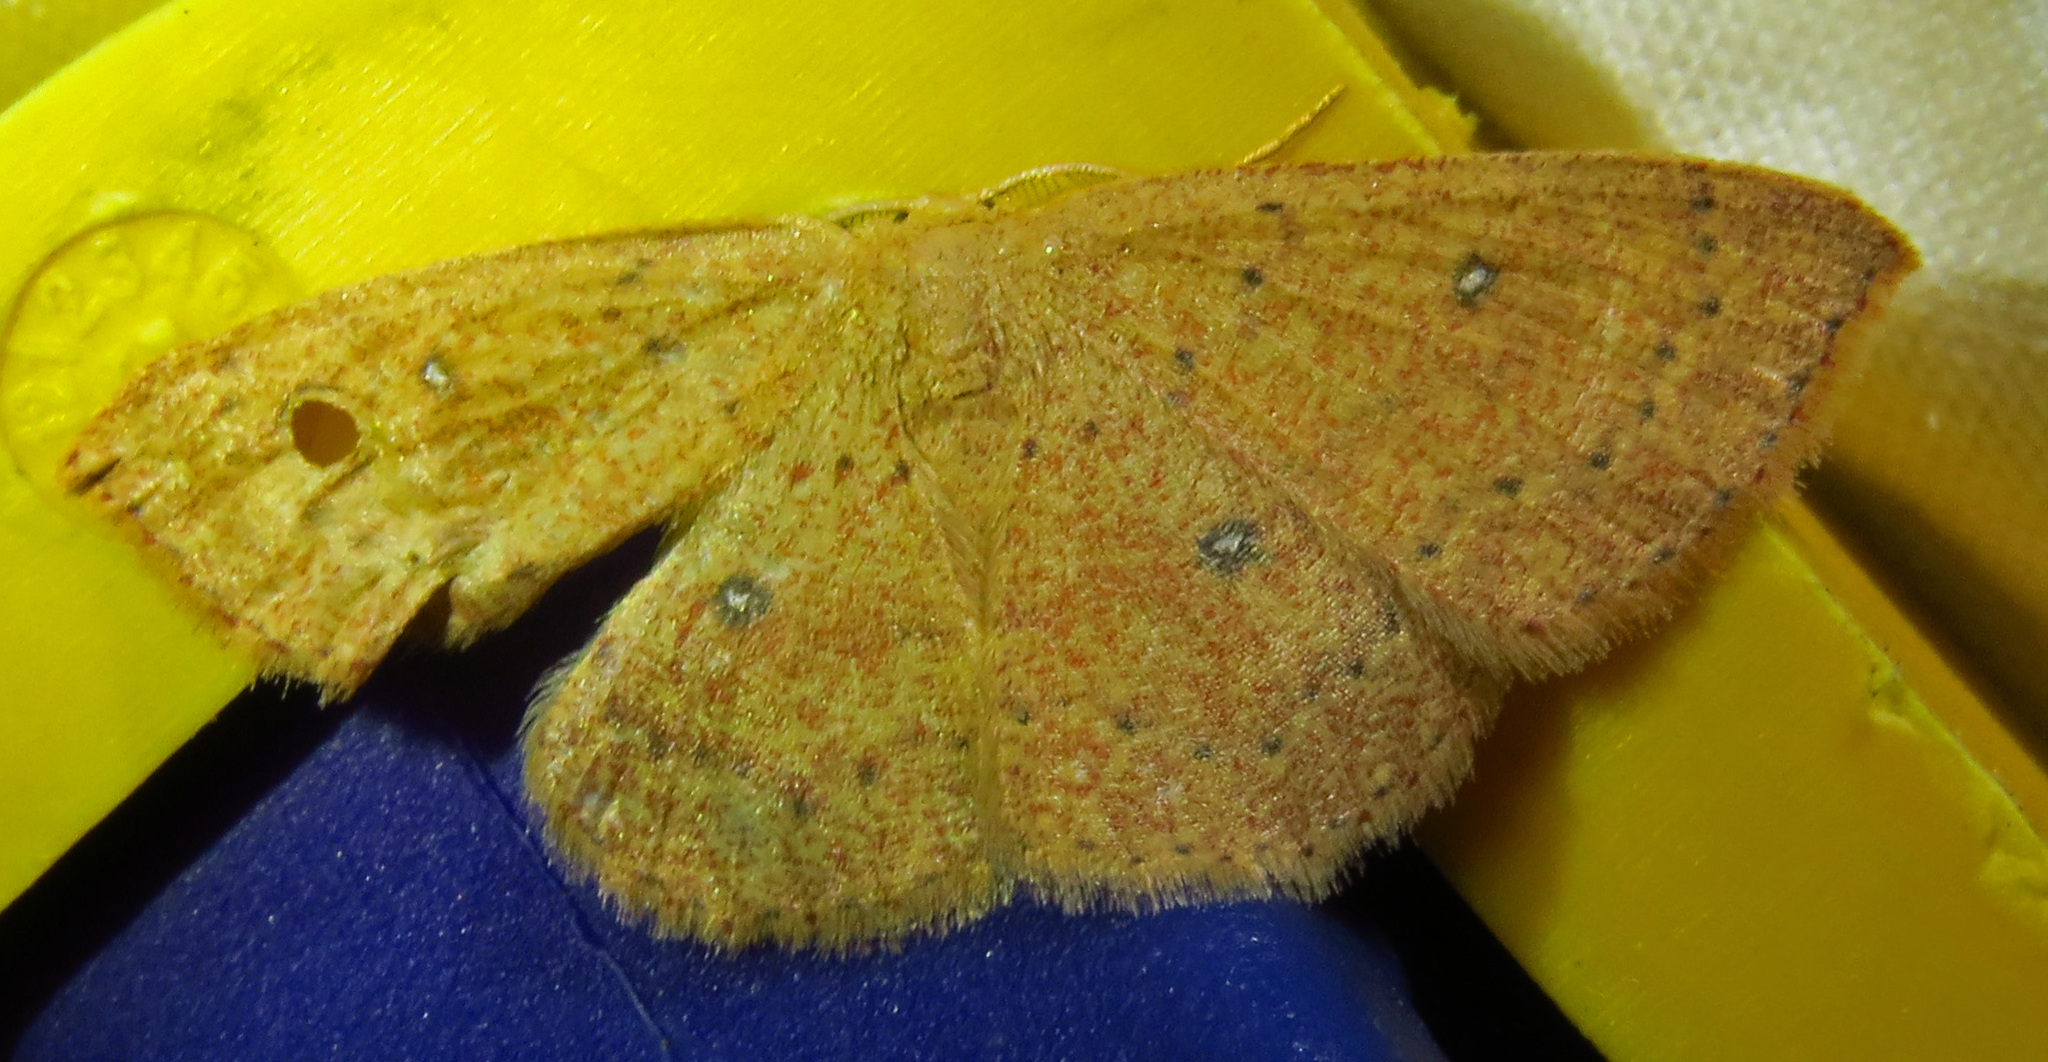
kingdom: Animalia
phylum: Arthropoda
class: Insecta
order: Lepidoptera
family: Geometridae
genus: Cyclophora
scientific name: Cyclophora packardi
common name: Packard's wave
